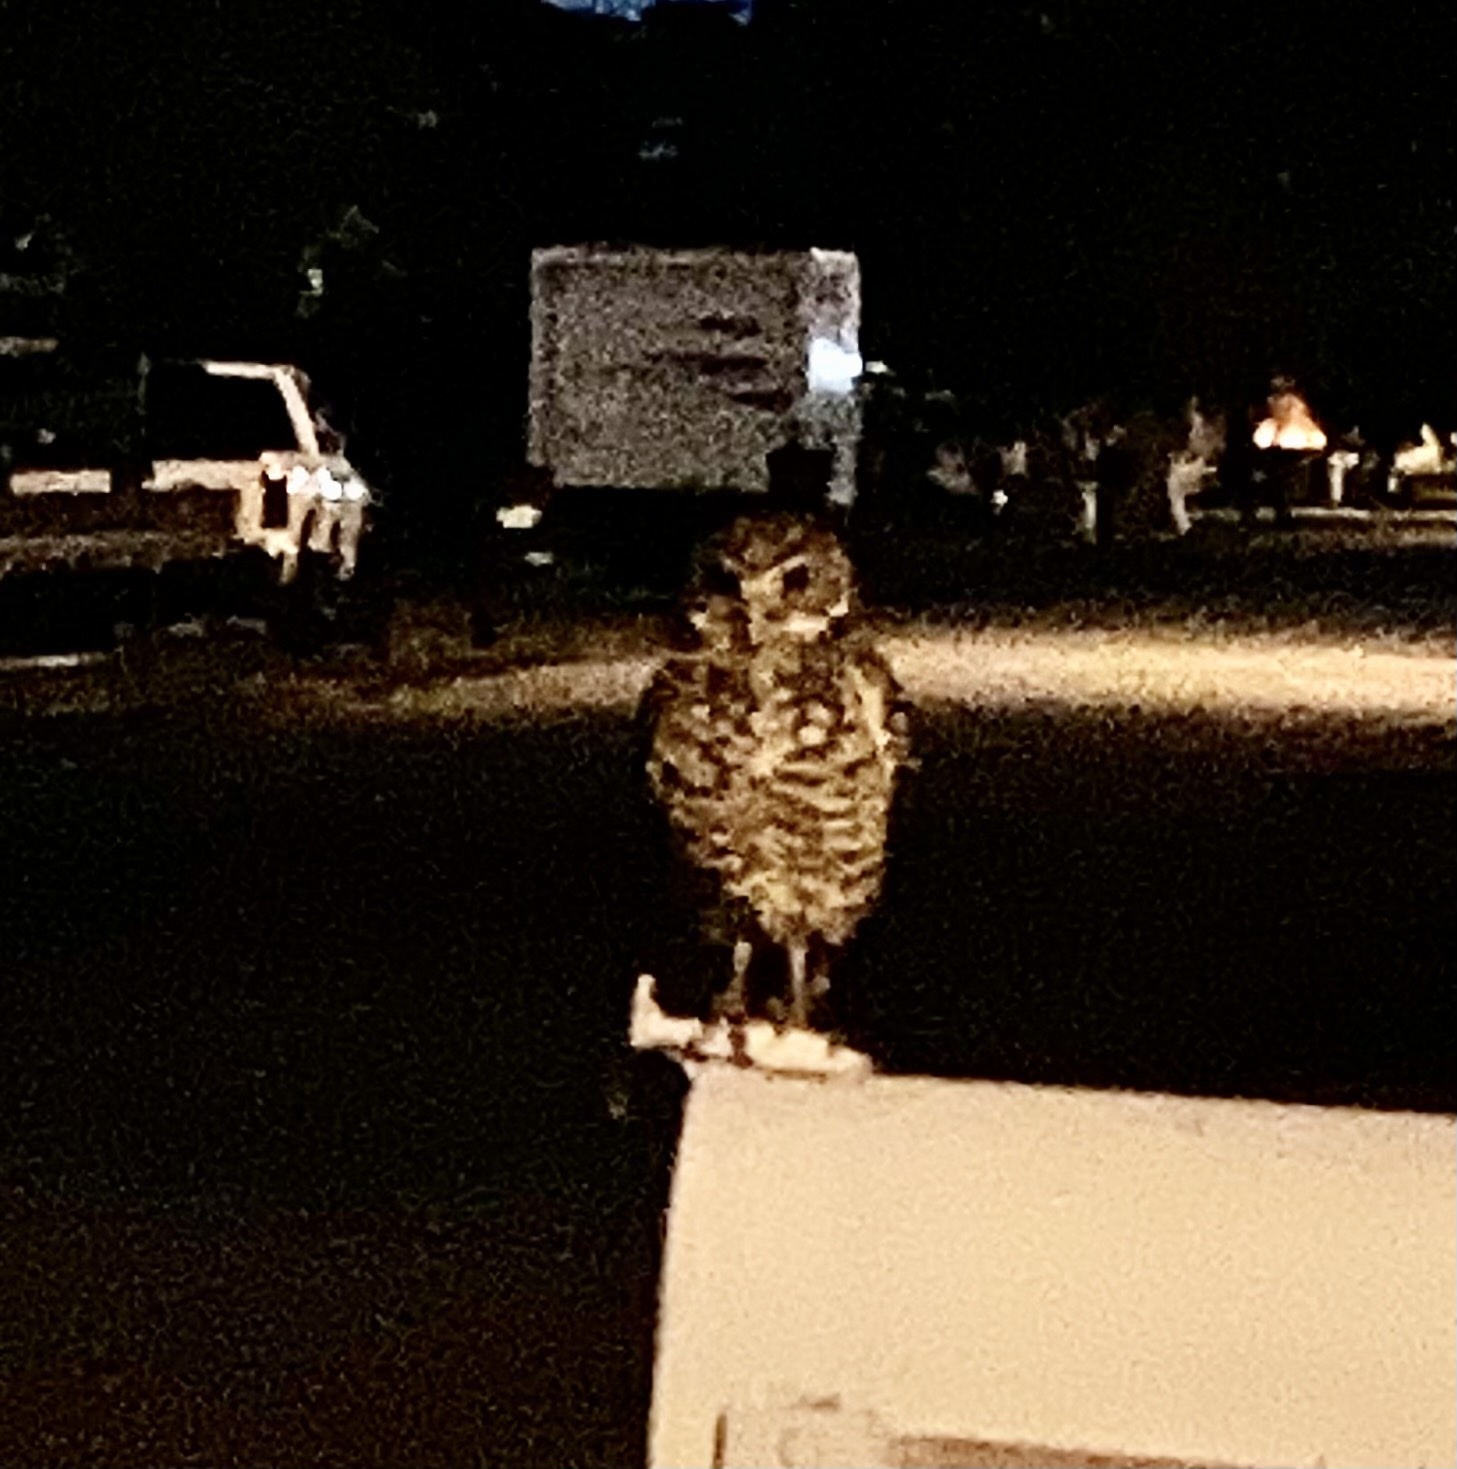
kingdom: Animalia
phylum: Chordata
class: Aves
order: Strigiformes
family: Strigidae
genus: Athene
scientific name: Athene cunicularia
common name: Burrowing owl
